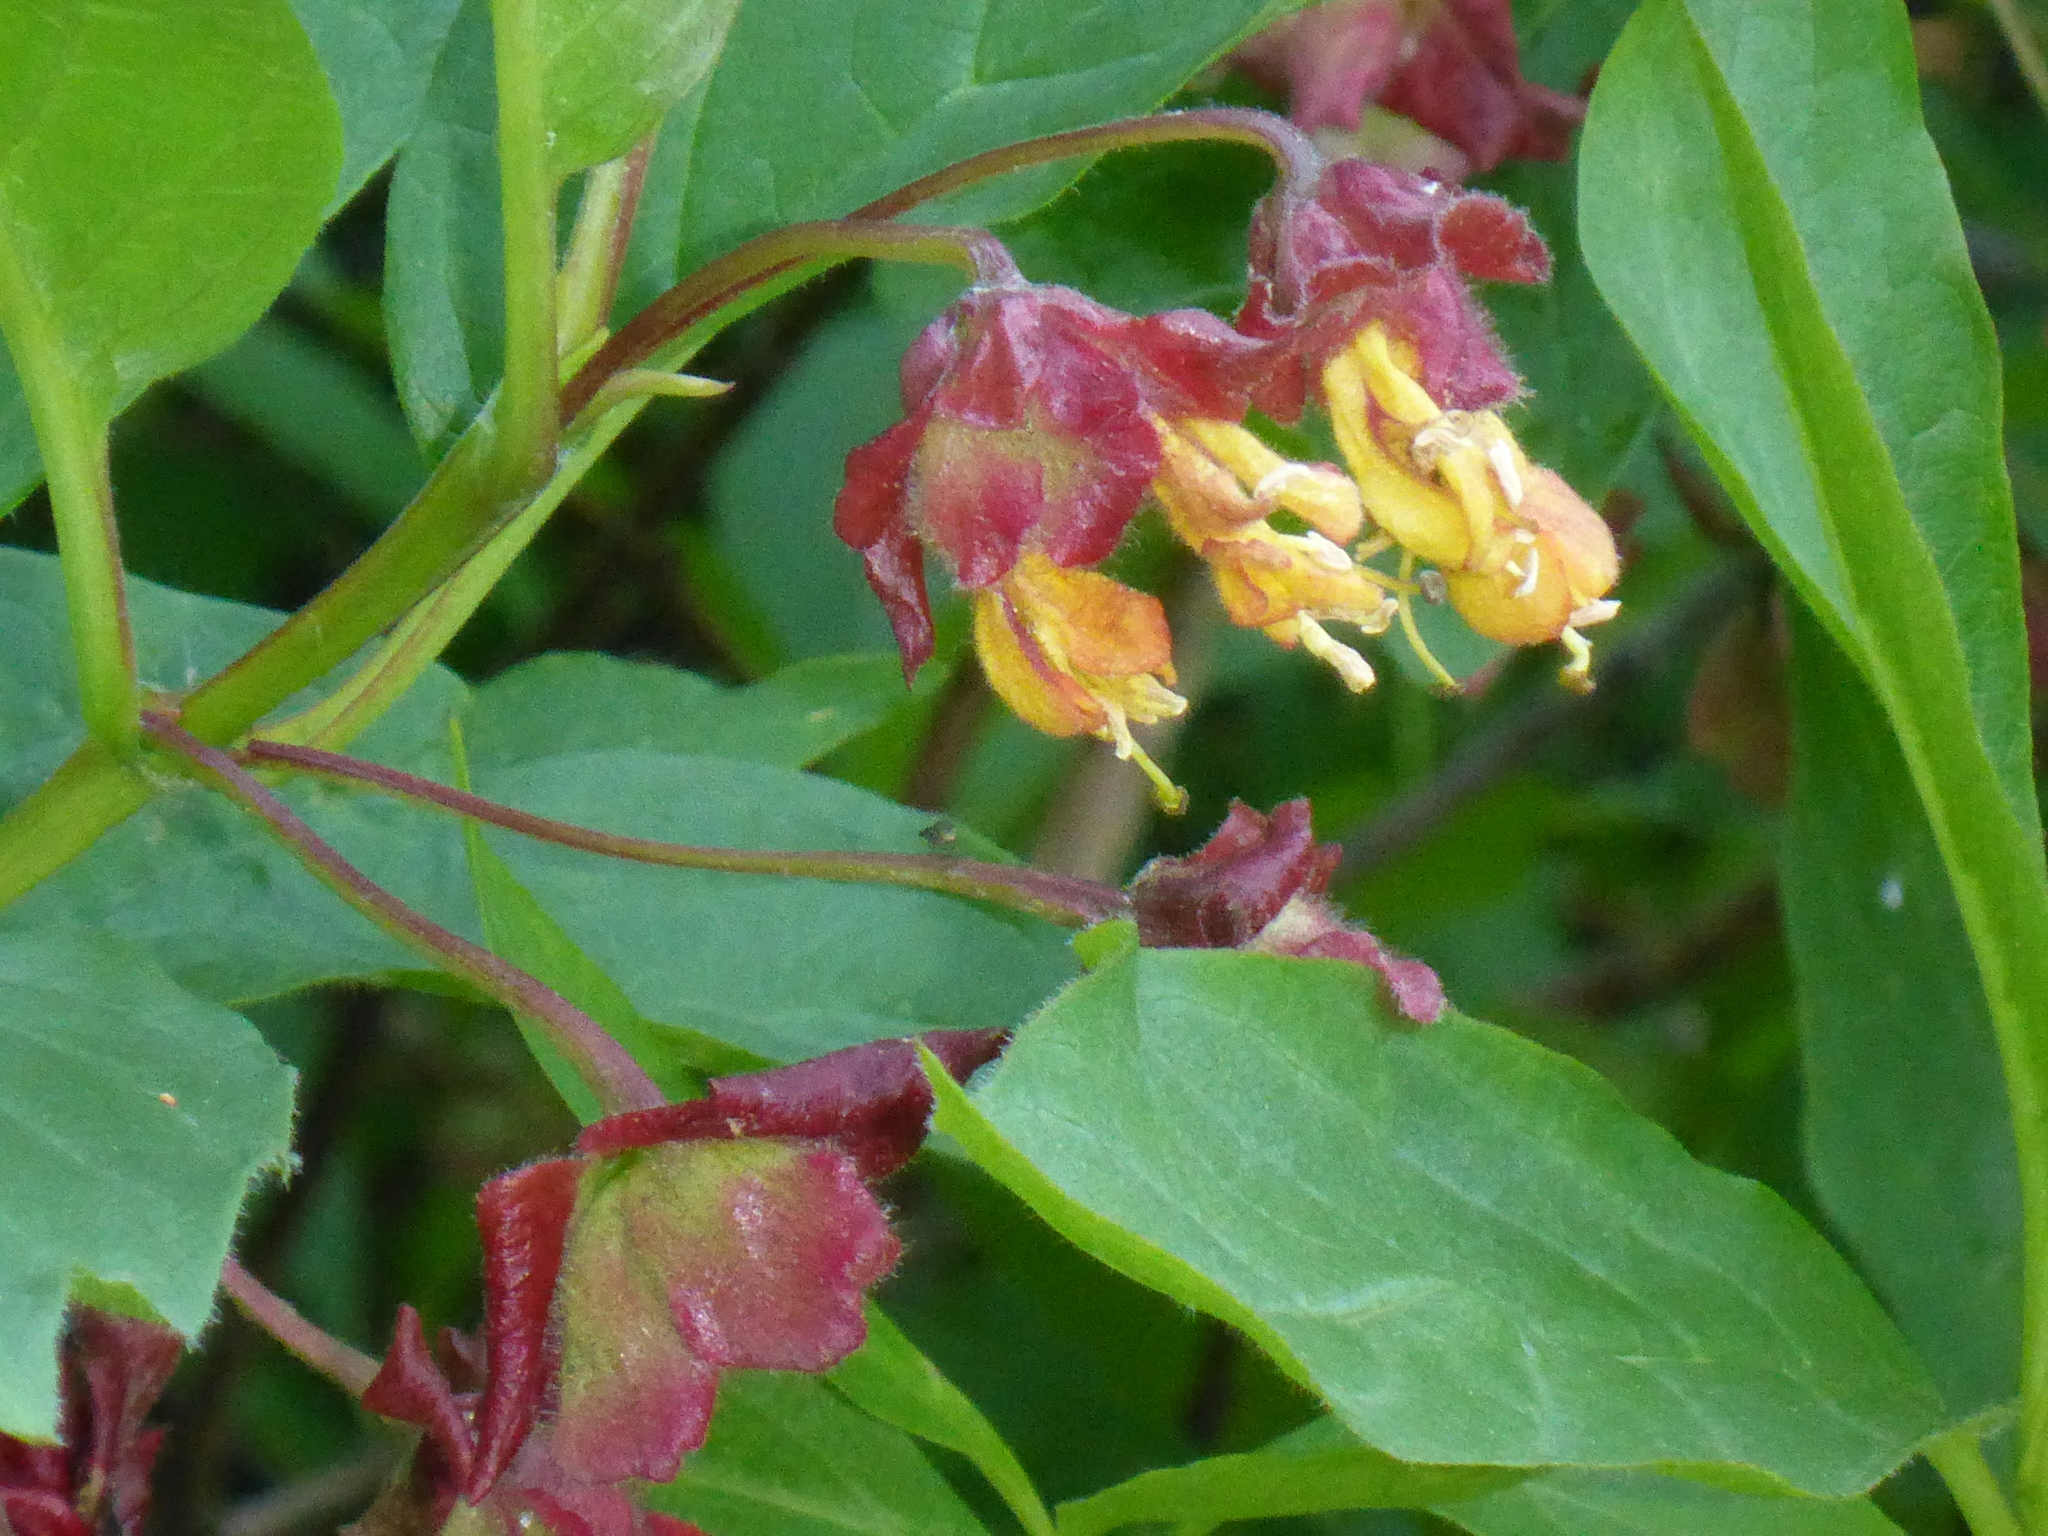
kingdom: Plantae
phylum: Tracheophyta
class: Magnoliopsida
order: Dipsacales
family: Caprifoliaceae
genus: Lonicera
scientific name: Lonicera involucrata
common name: Californian honeysuckle
